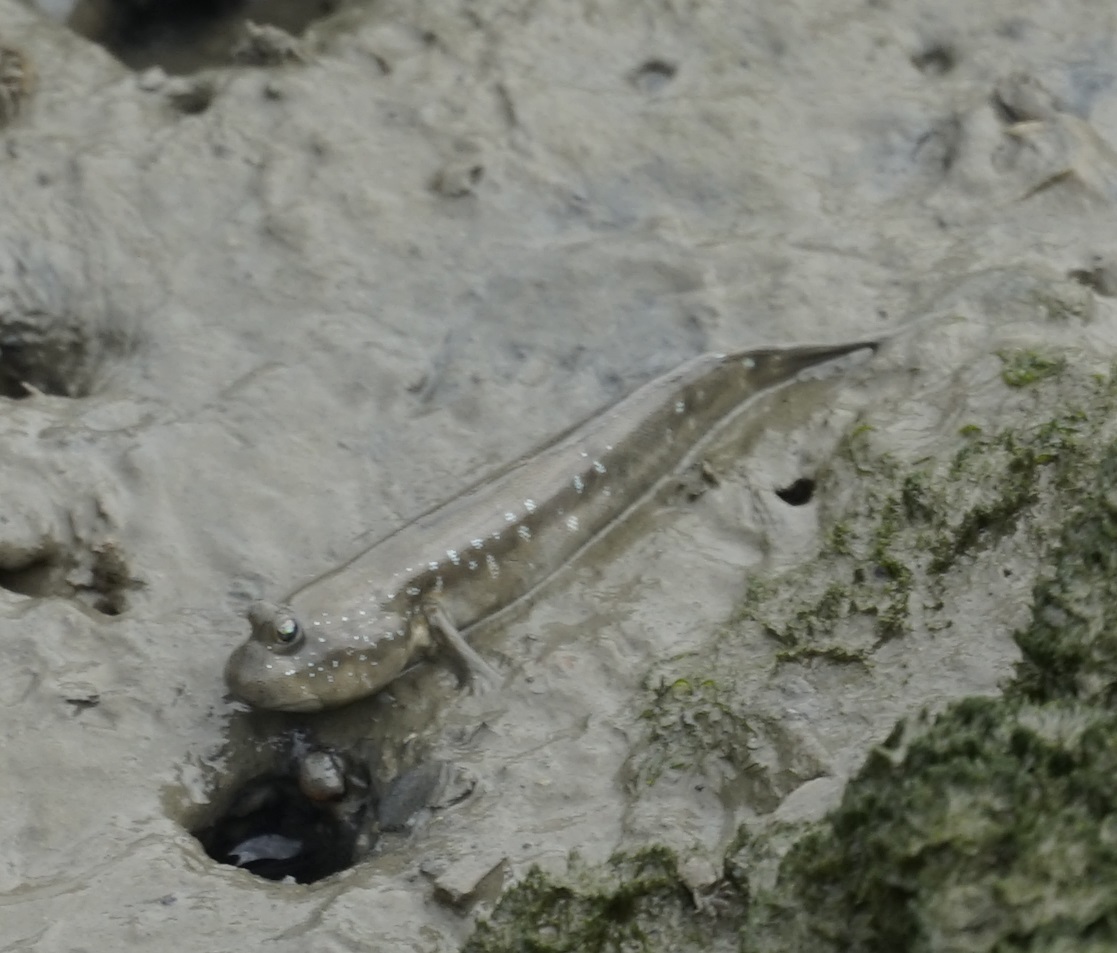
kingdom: Animalia
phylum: Chordata
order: Perciformes
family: Gobiidae
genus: Boleophthalmus
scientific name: Boleophthalmus pectinirostris
